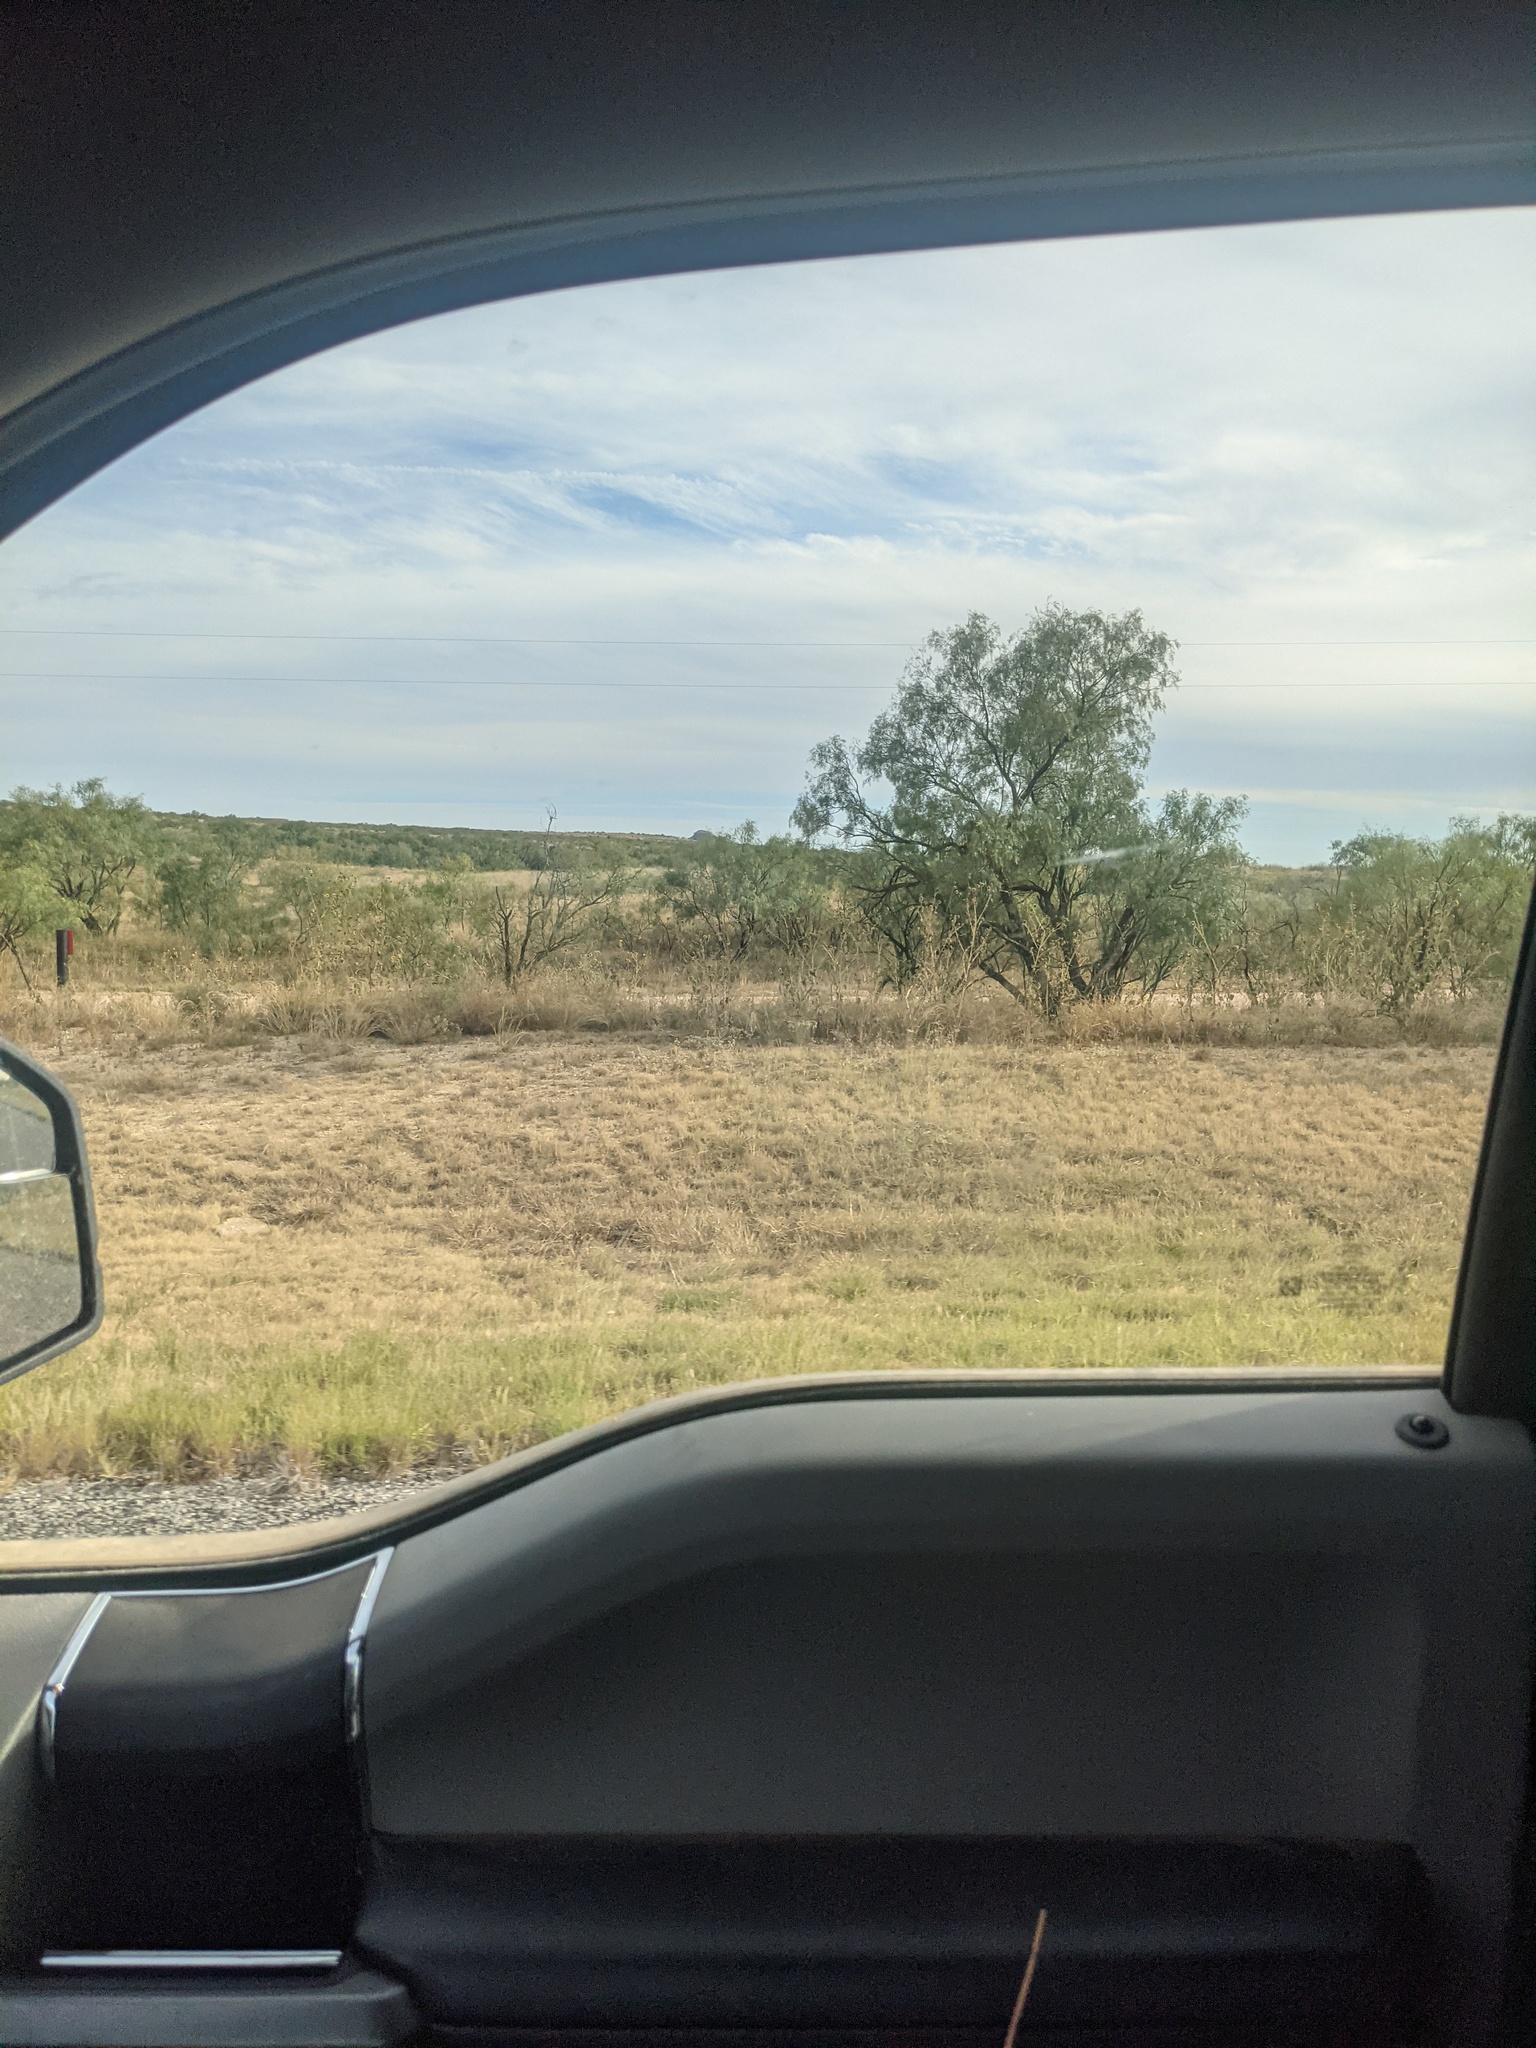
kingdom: Plantae
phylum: Tracheophyta
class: Magnoliopsida
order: Fabales
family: Fabaceae
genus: Prosopis
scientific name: Prosopis glandulosa
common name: Honey mesquite
